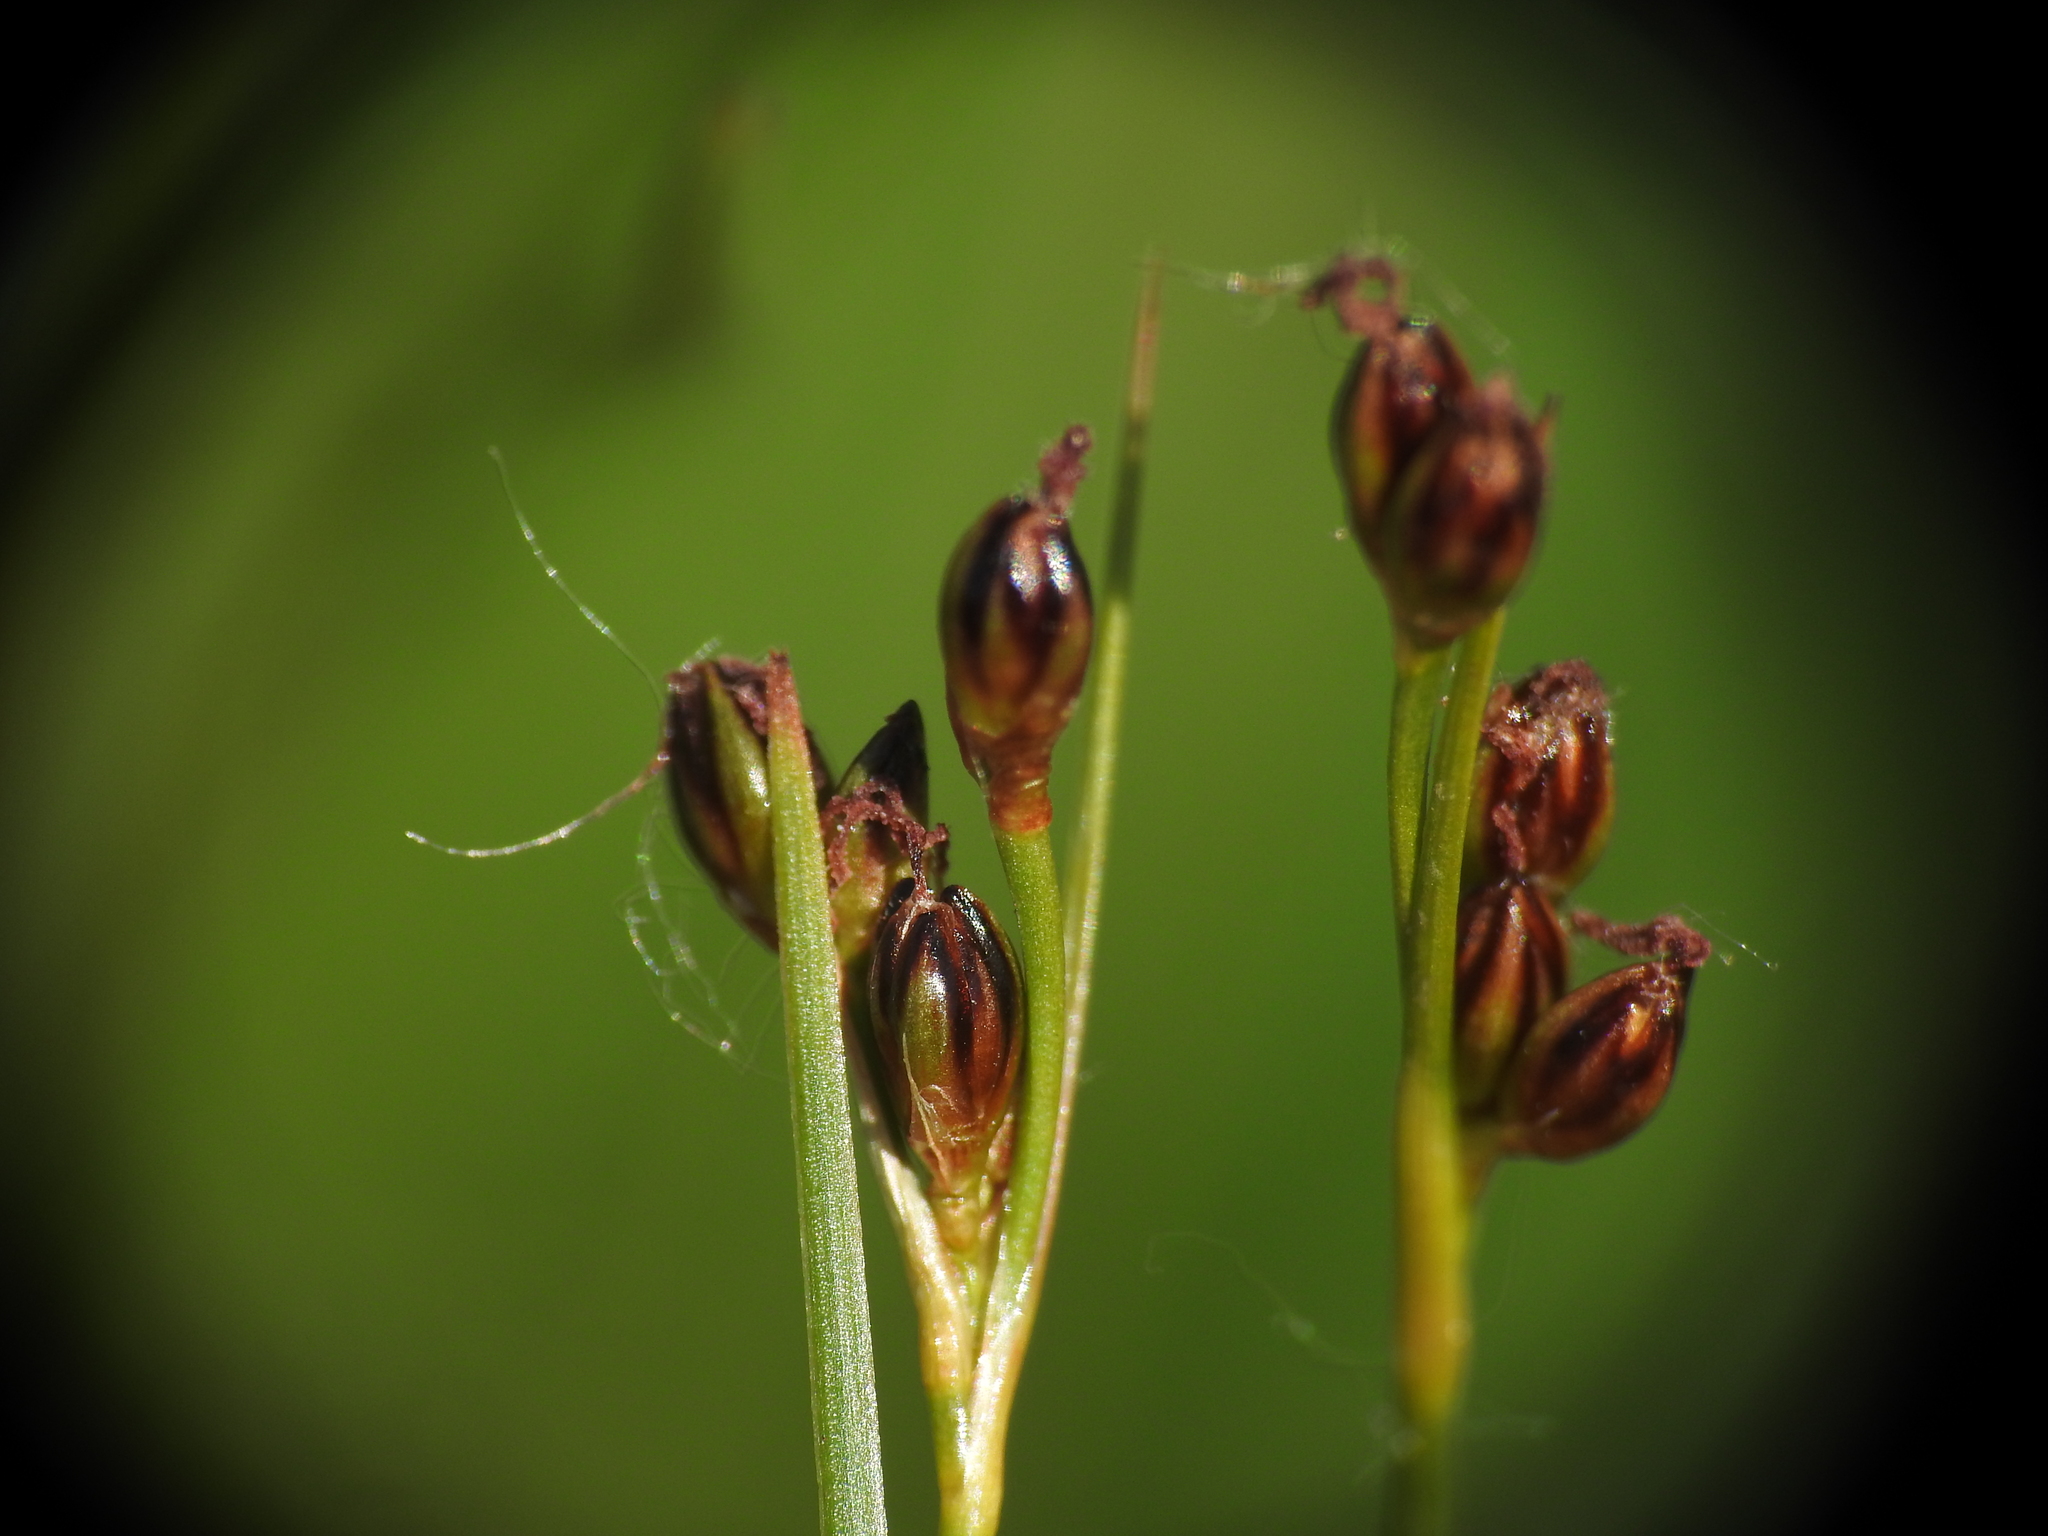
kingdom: Plantae
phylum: Tracheophyta
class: Liliopsida
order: Poales
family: Juncaceae
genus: Juncus
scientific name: Juncus gerardi
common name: Saltmarsh rush
